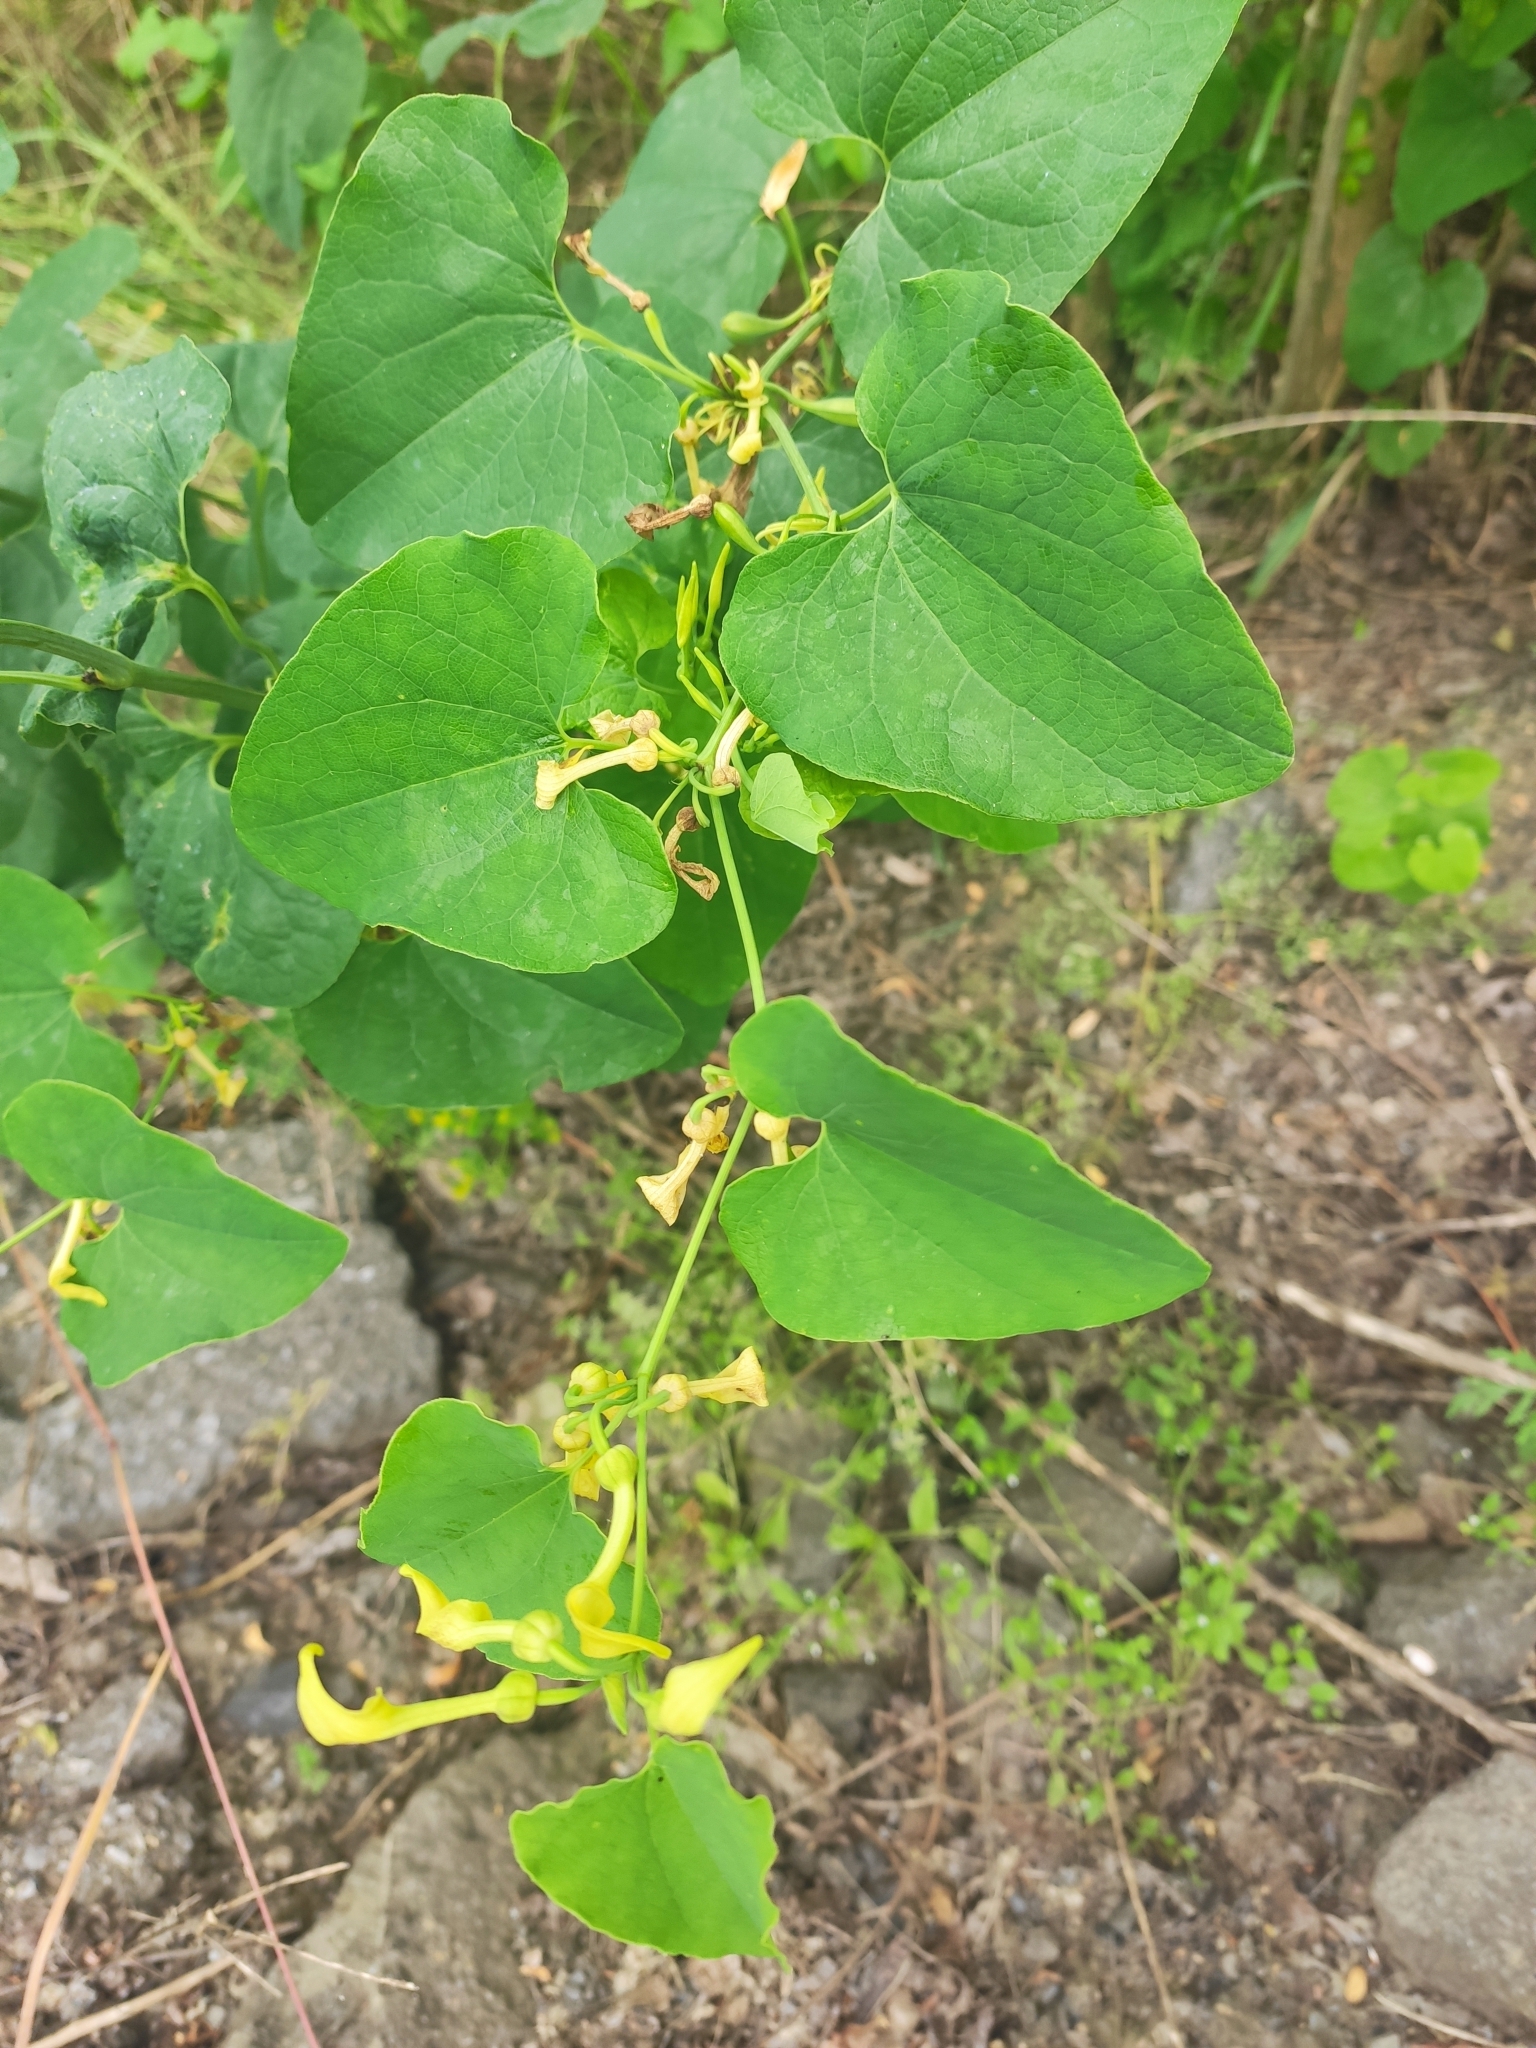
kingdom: Plantae
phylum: Tracheophyta
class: Magnoliopsida
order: Piperales
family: Aristolochiaceae
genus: Aristolochia
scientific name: Aristolochia clematitis
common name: Birthwort
